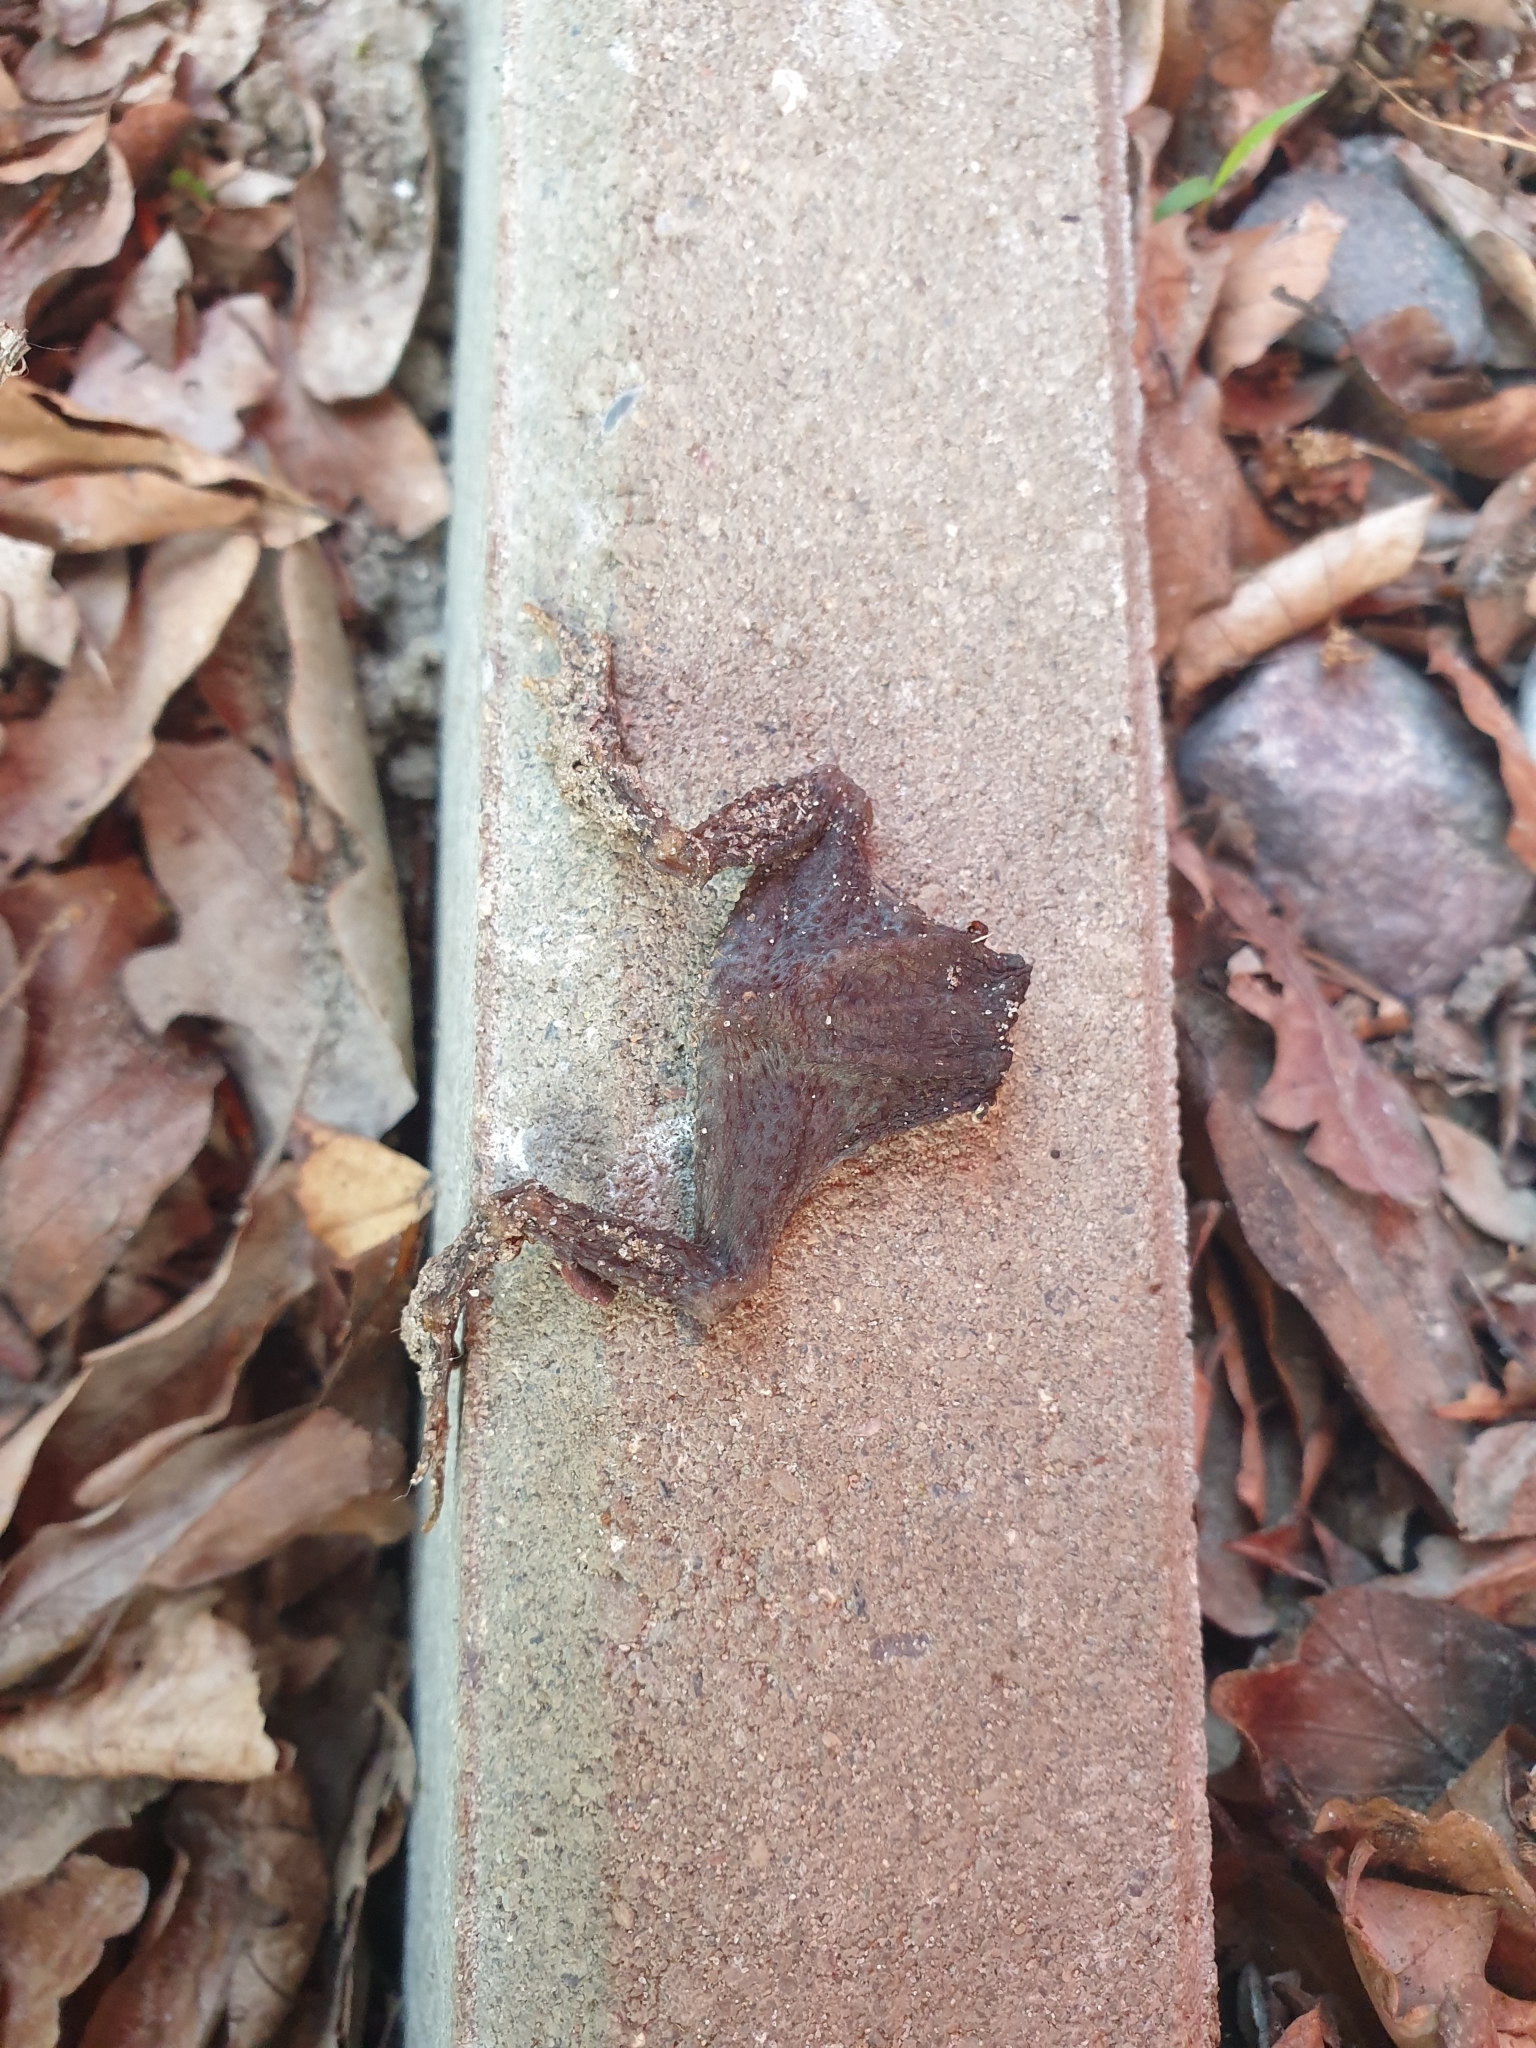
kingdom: Animalia
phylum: Chordata
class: Amphibia
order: Anura
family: Bufonidae
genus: Bufo
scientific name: Bufo bufo
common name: Common toad
